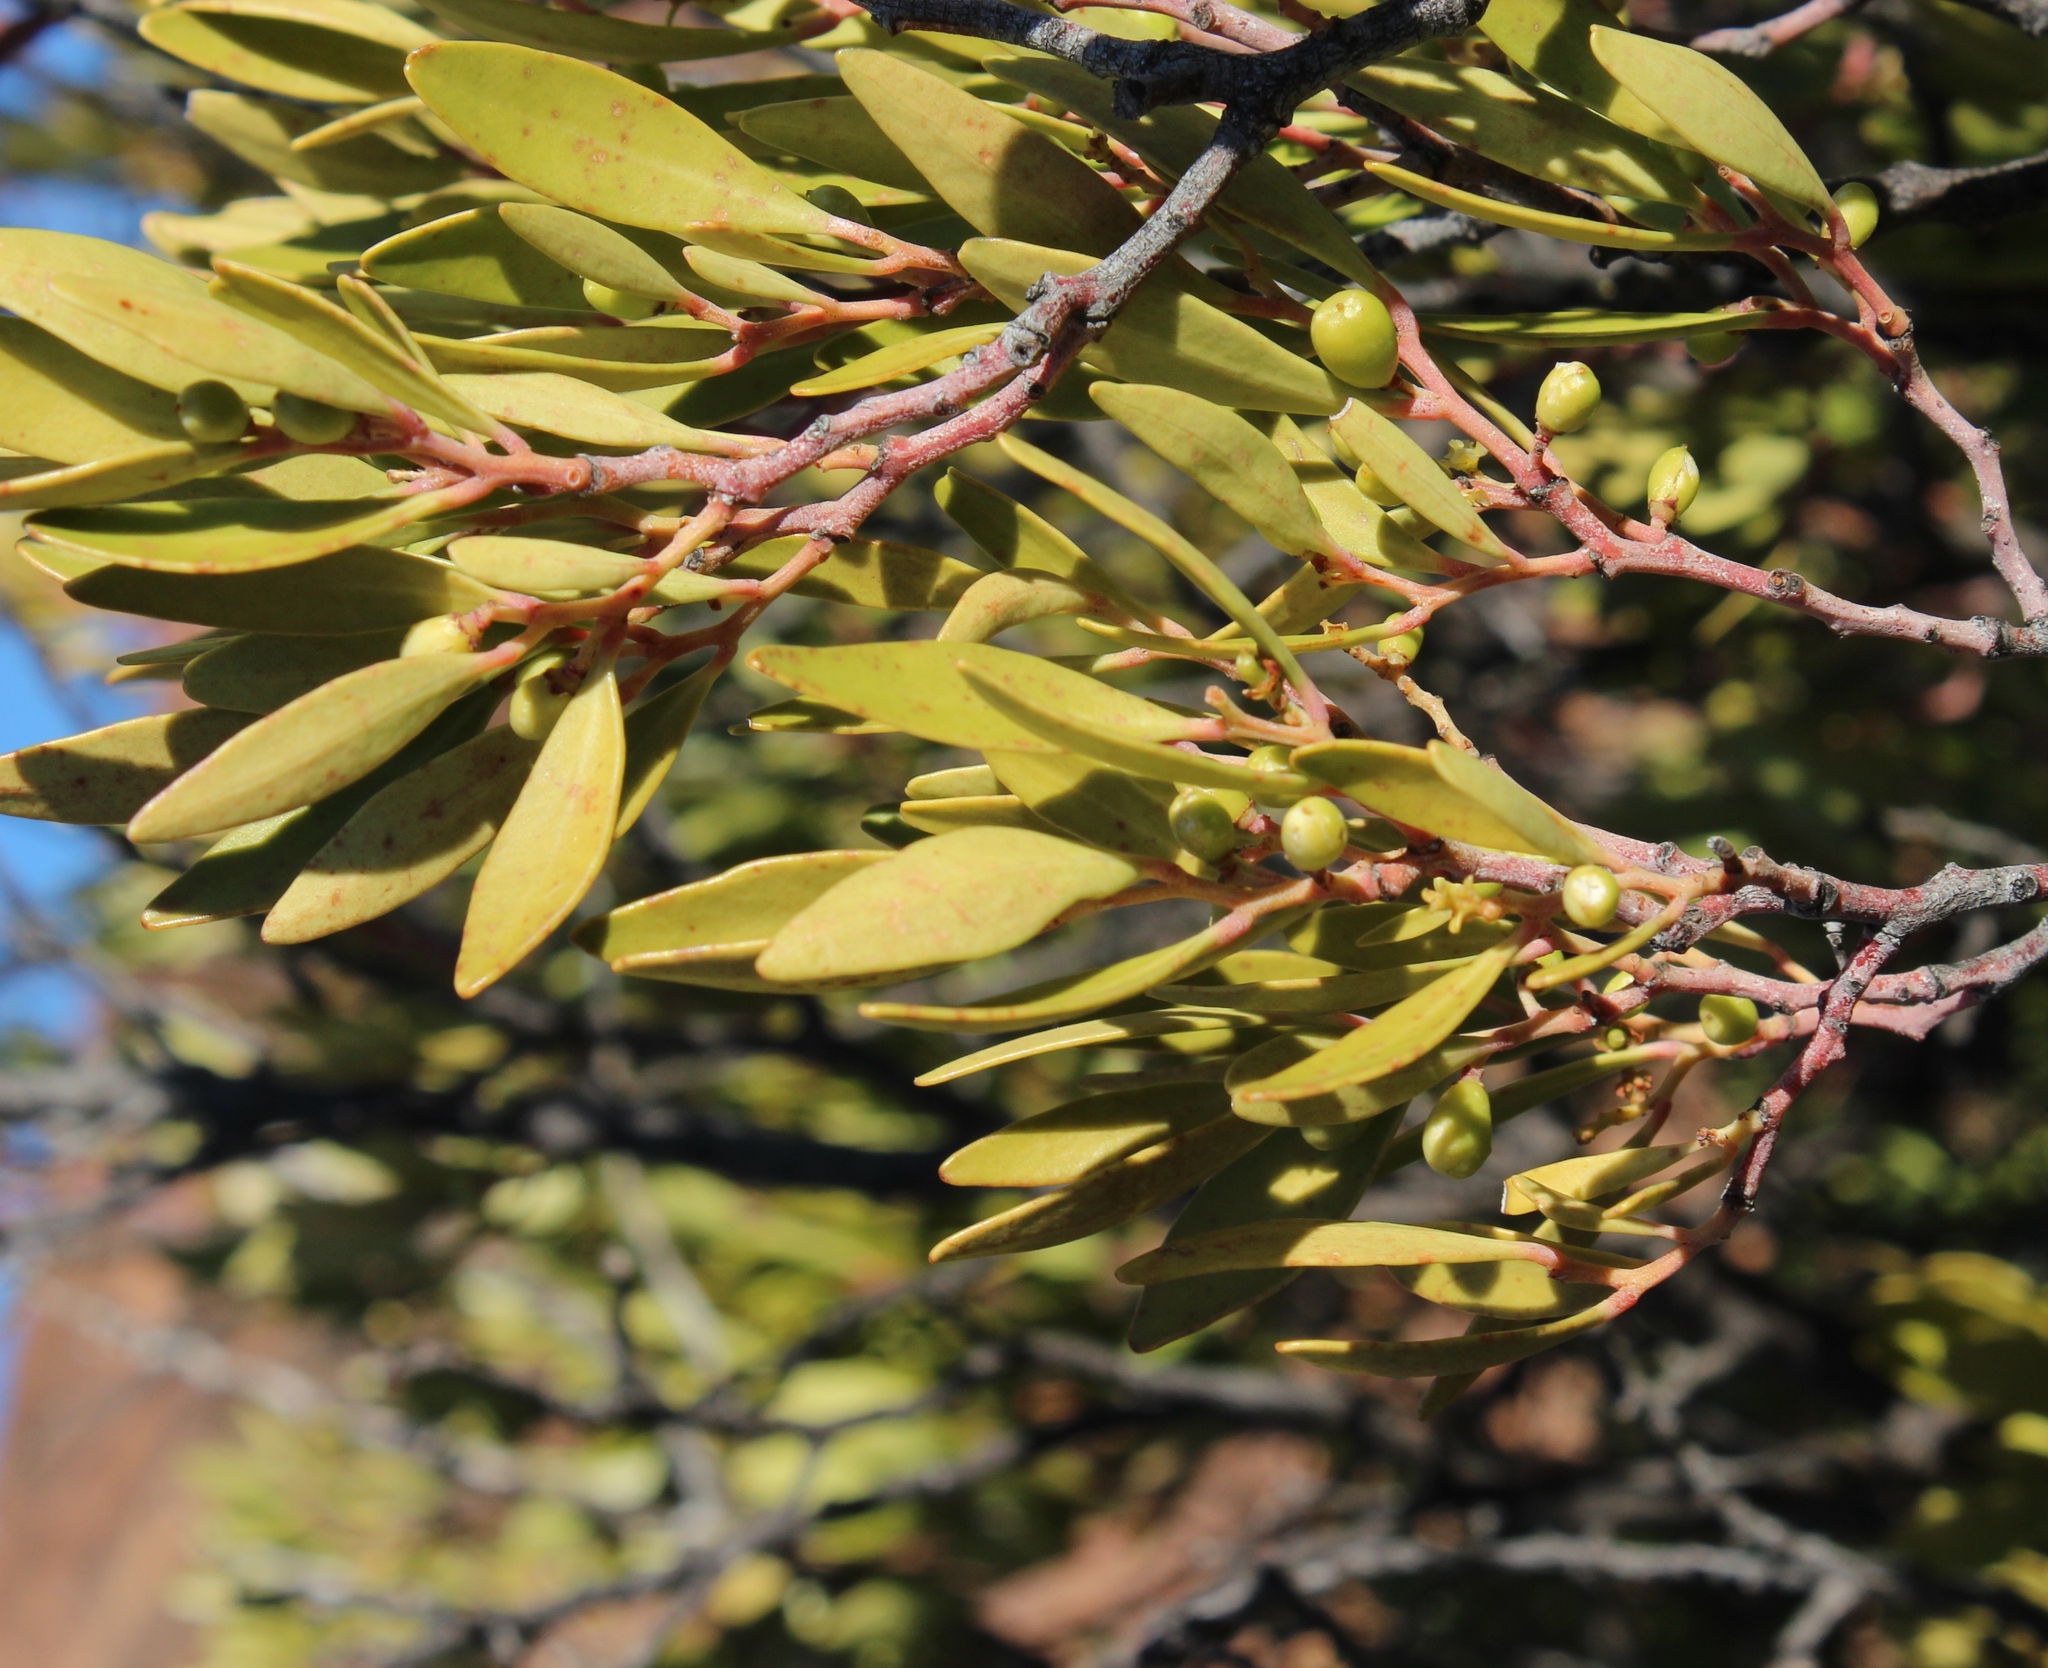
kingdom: Plantae
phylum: Tracheophyta
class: Magnoliopsida
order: Celastrales
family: Celastraceae
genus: Gymnosporia
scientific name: Gymnosporia laurina
